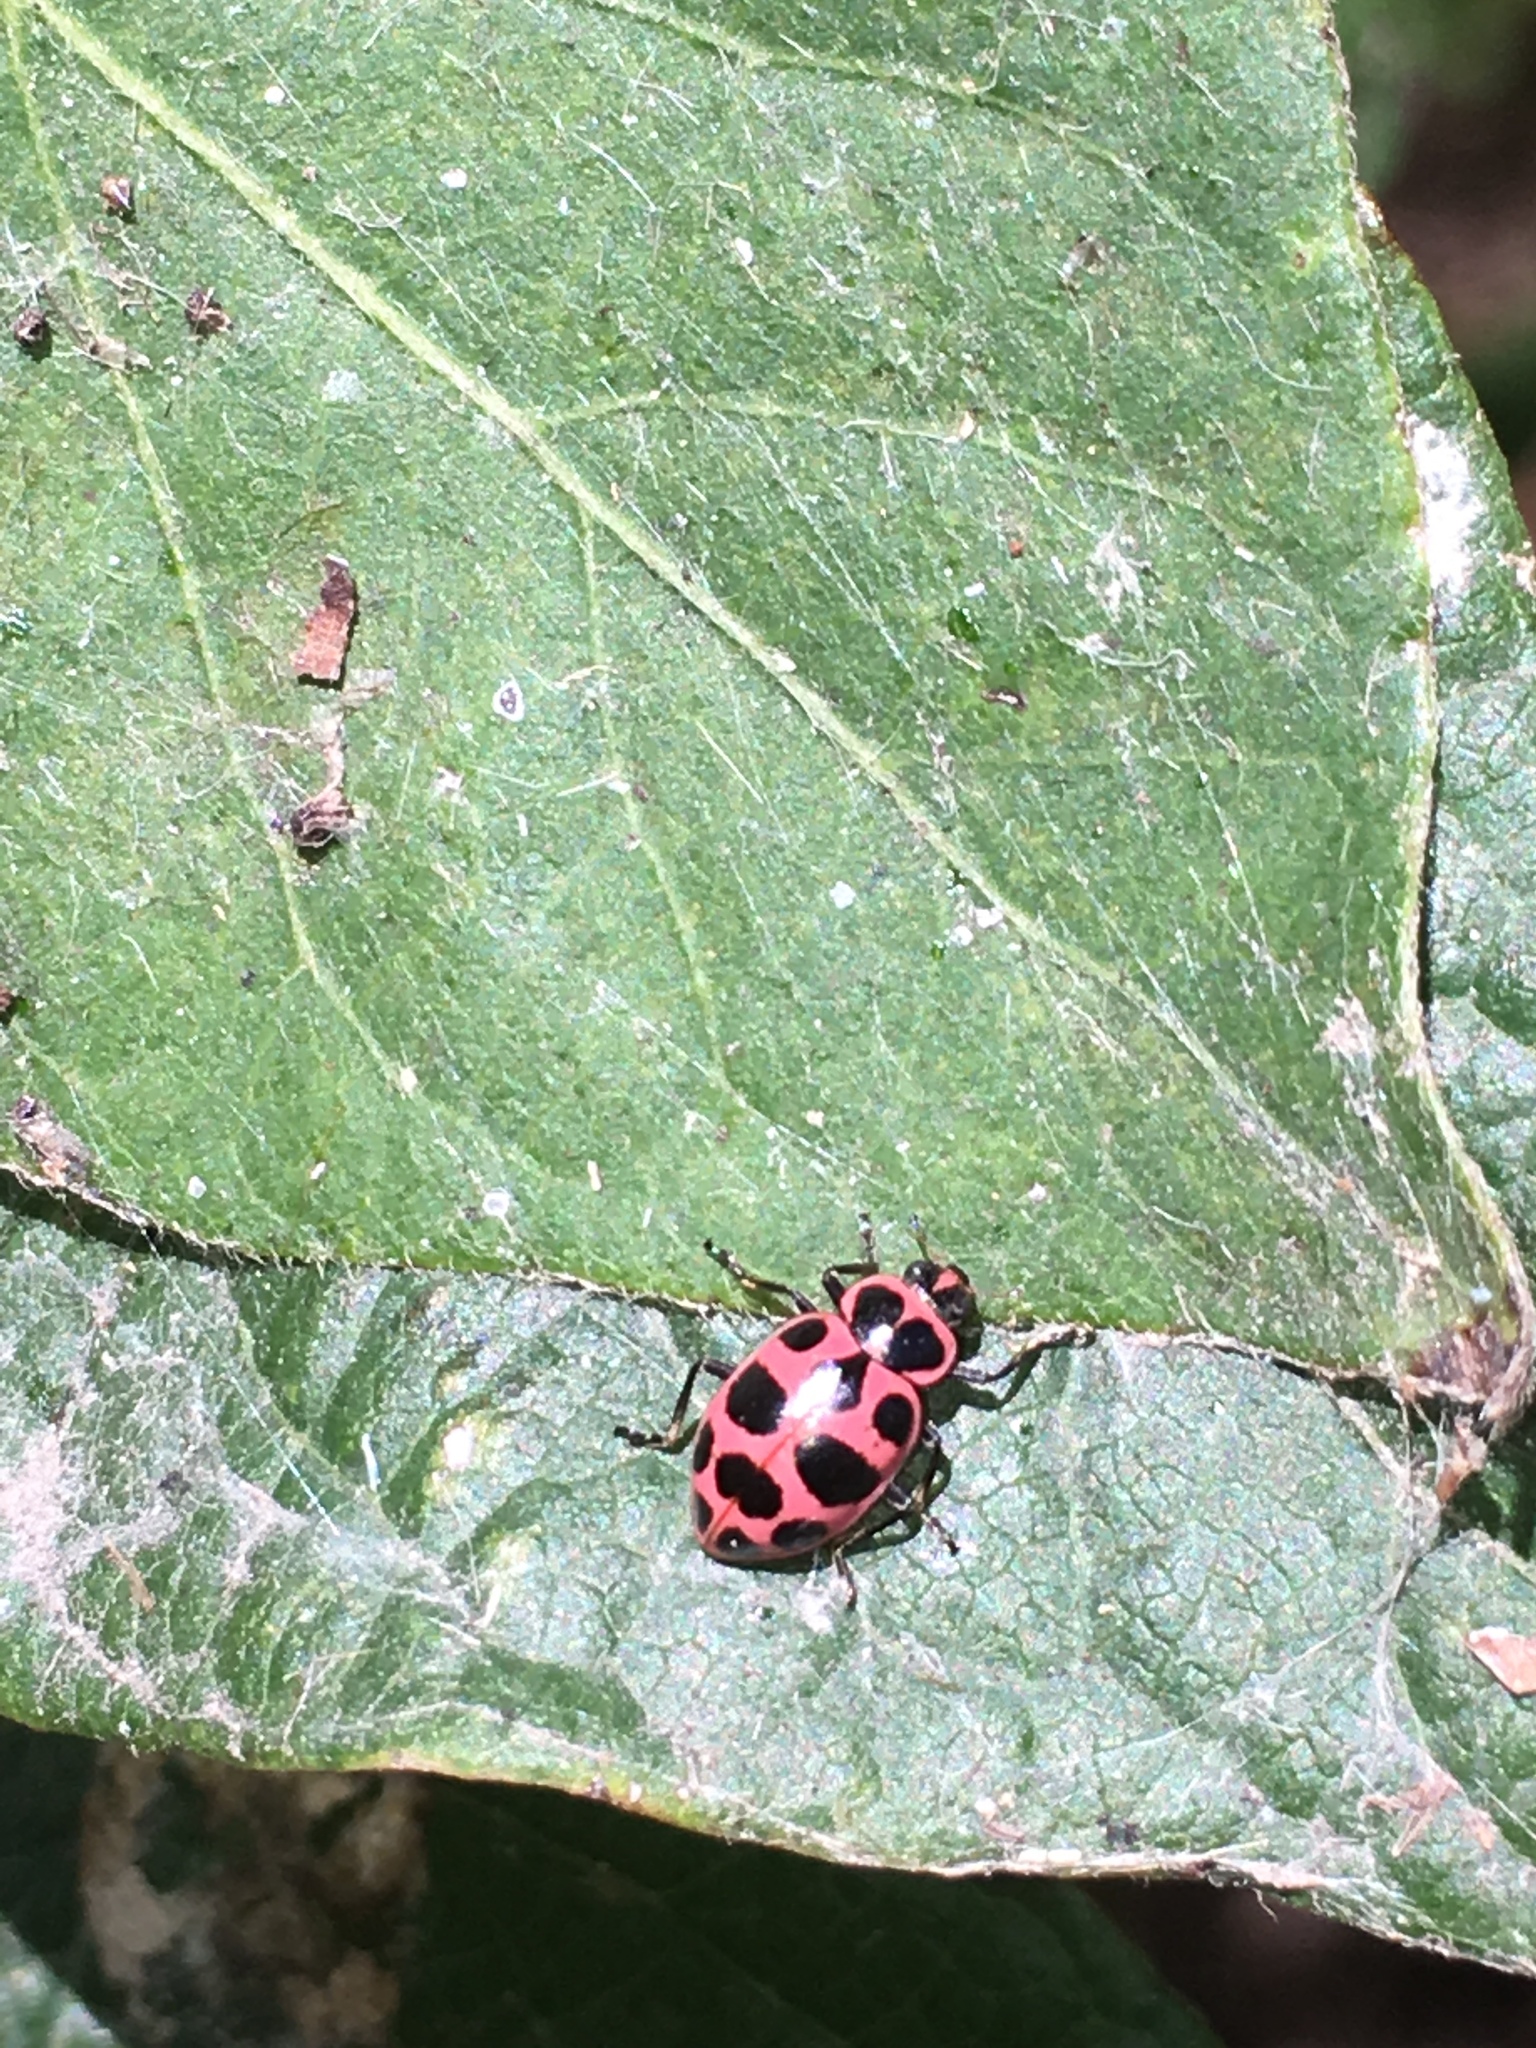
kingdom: Animalia
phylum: Arthropoda
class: Insecta
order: Coleoptera
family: Coccinellidae
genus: Coleomegilla
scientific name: Coleomegilla maculata
